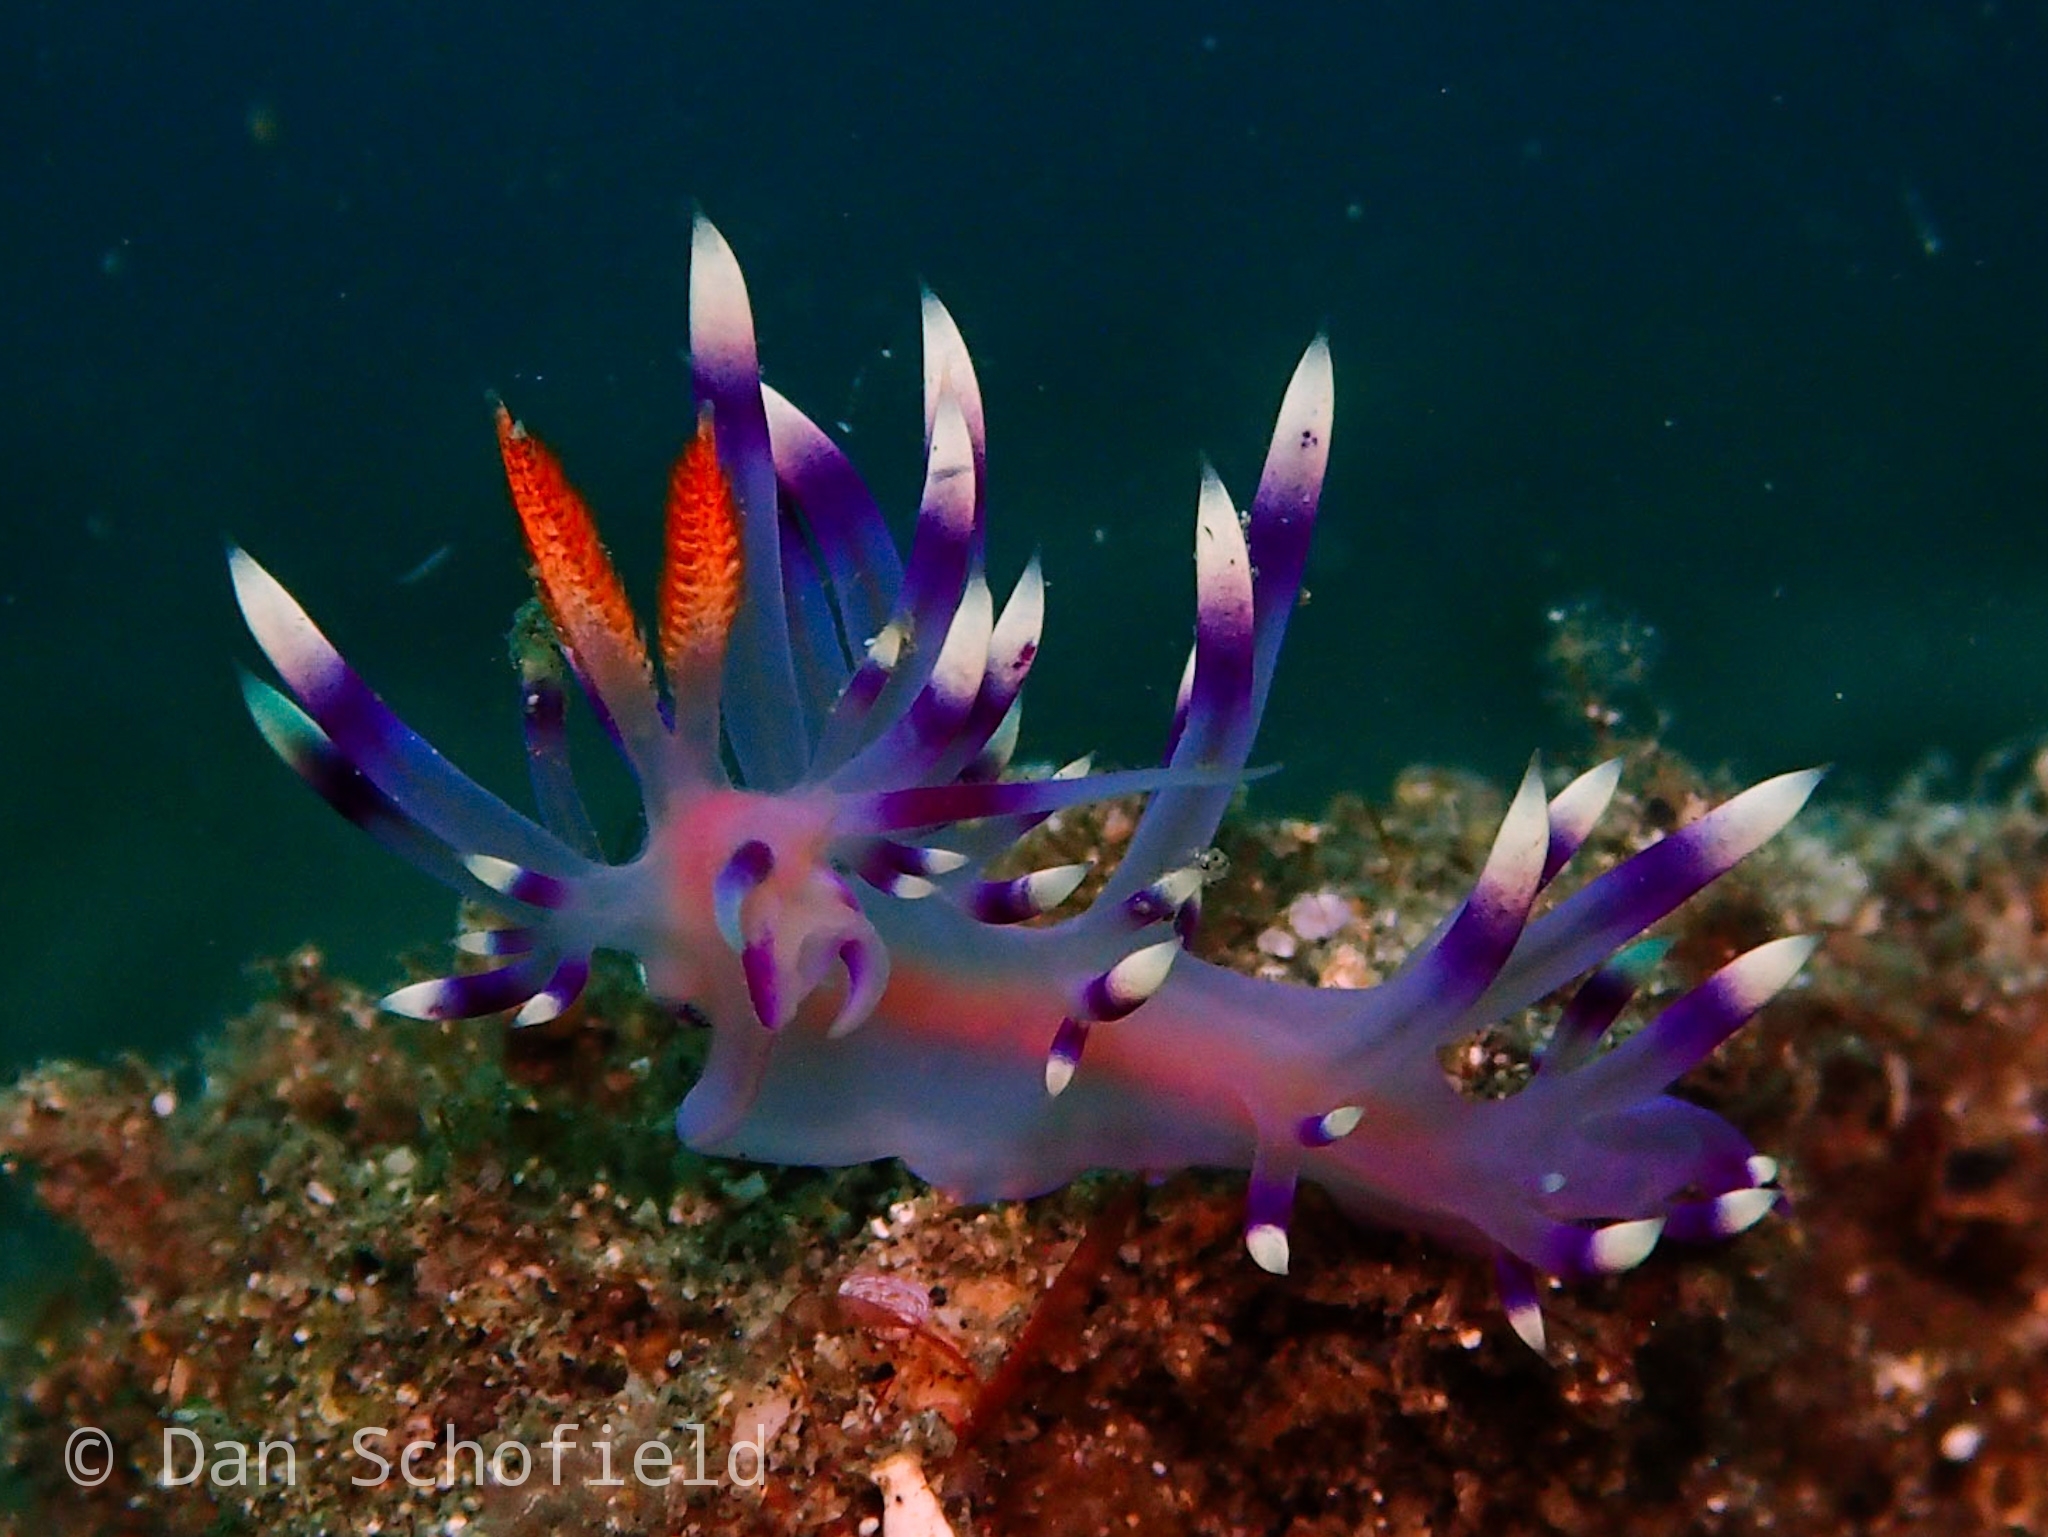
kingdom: Animalia
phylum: Mollusca
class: Gastropoda
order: Nudibranchia
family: Flabellinidae
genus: Coryphellina
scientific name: Coryphellina exoptata
